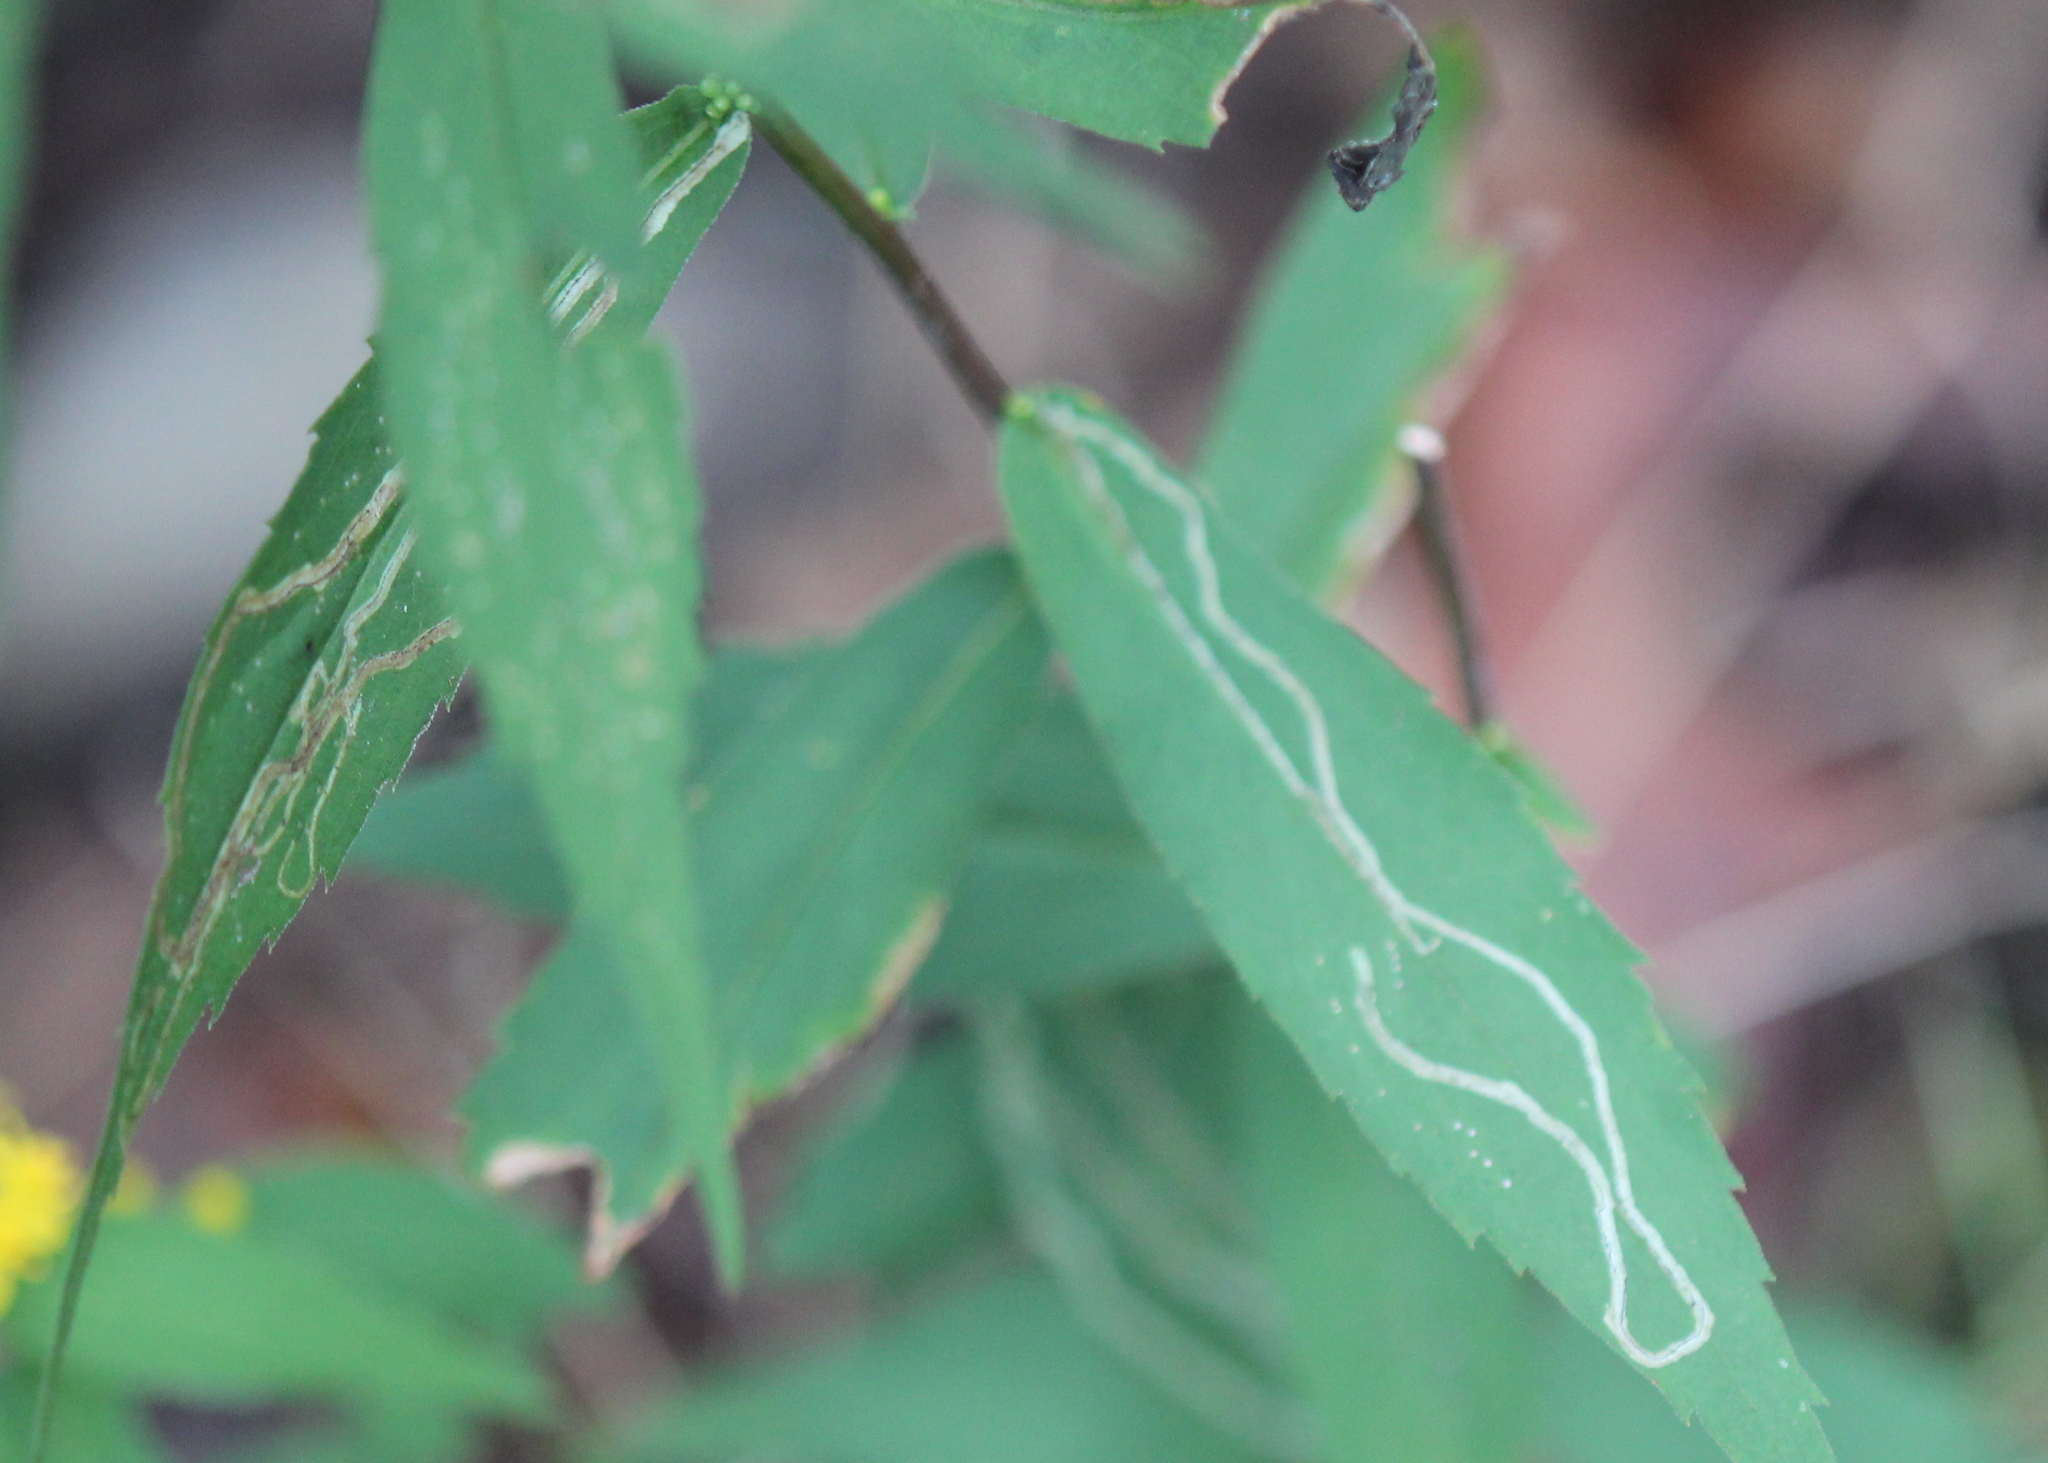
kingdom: Animalia
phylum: Arthropoda
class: Insecta
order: Diptera
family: Agromyzidae
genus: Ophiomyia
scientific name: Ophiomyia maura
